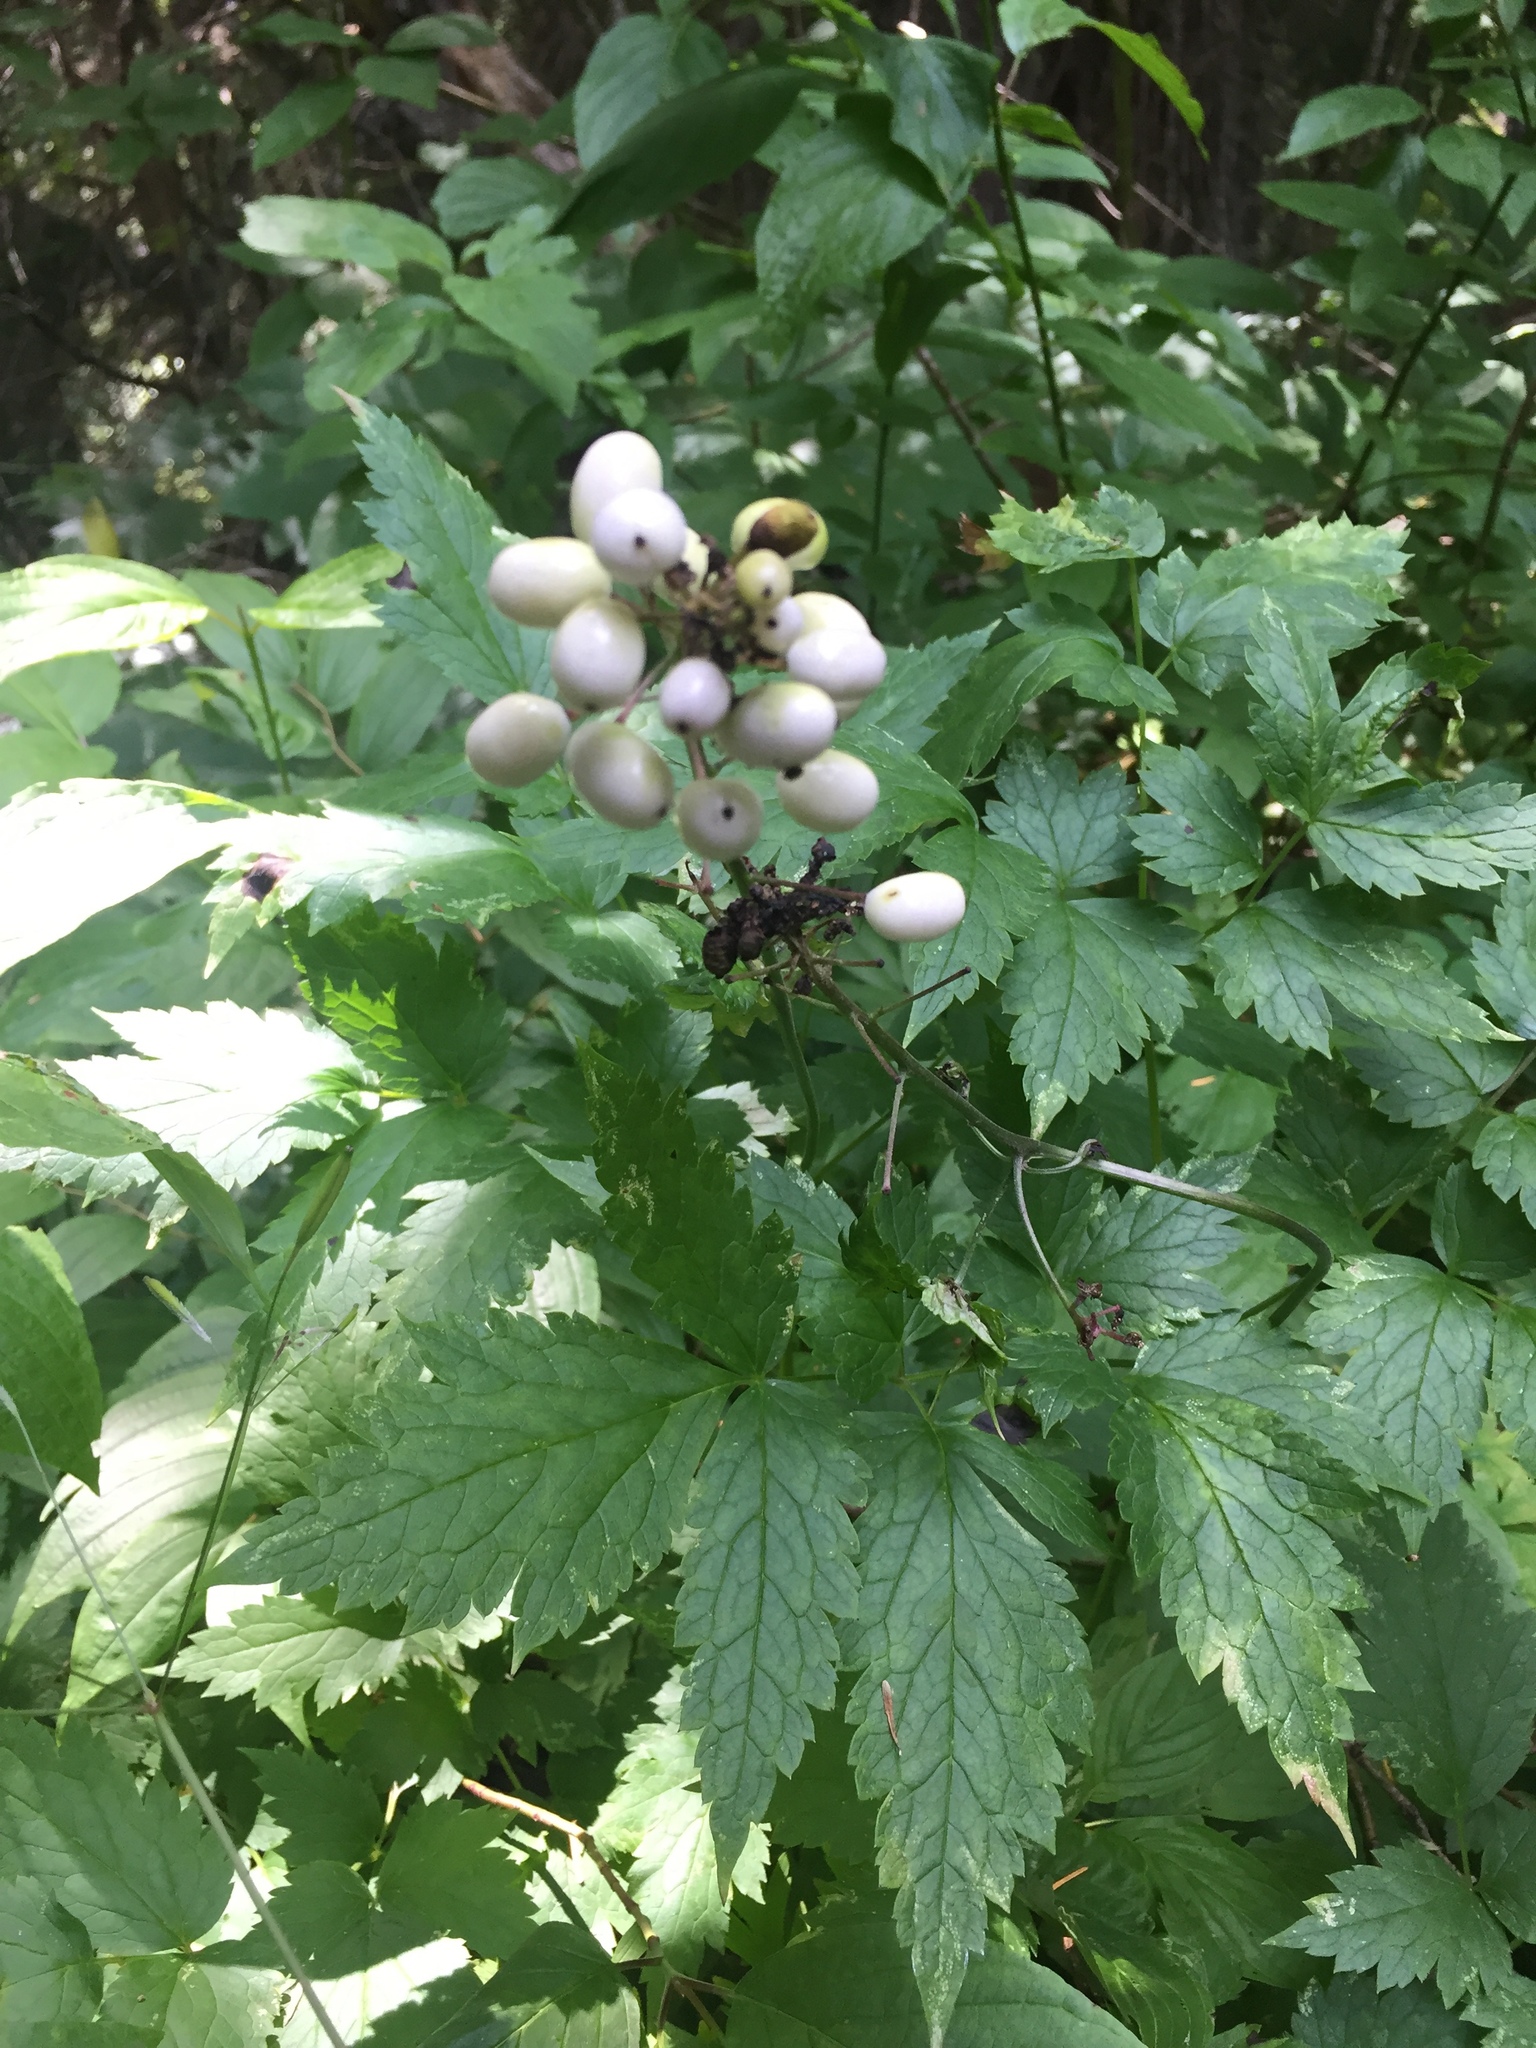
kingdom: Plantae
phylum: Tracheophyta
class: Magnoliopsida
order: Ranunculales
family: Ranunculaceae
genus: Actaea
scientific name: Actaea rubra
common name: Red baneberry
